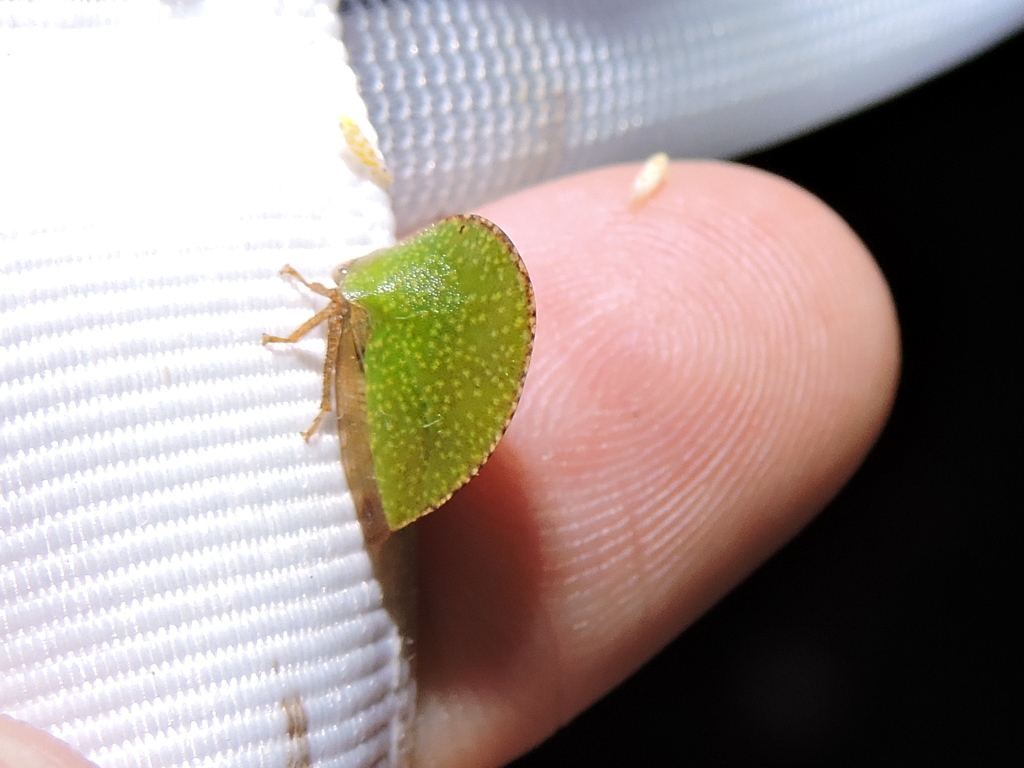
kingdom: Animalia
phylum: Arthropoda
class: Insecta
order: Hemiptera
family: Membracidae
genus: Archasia
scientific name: Archasia auriculata
